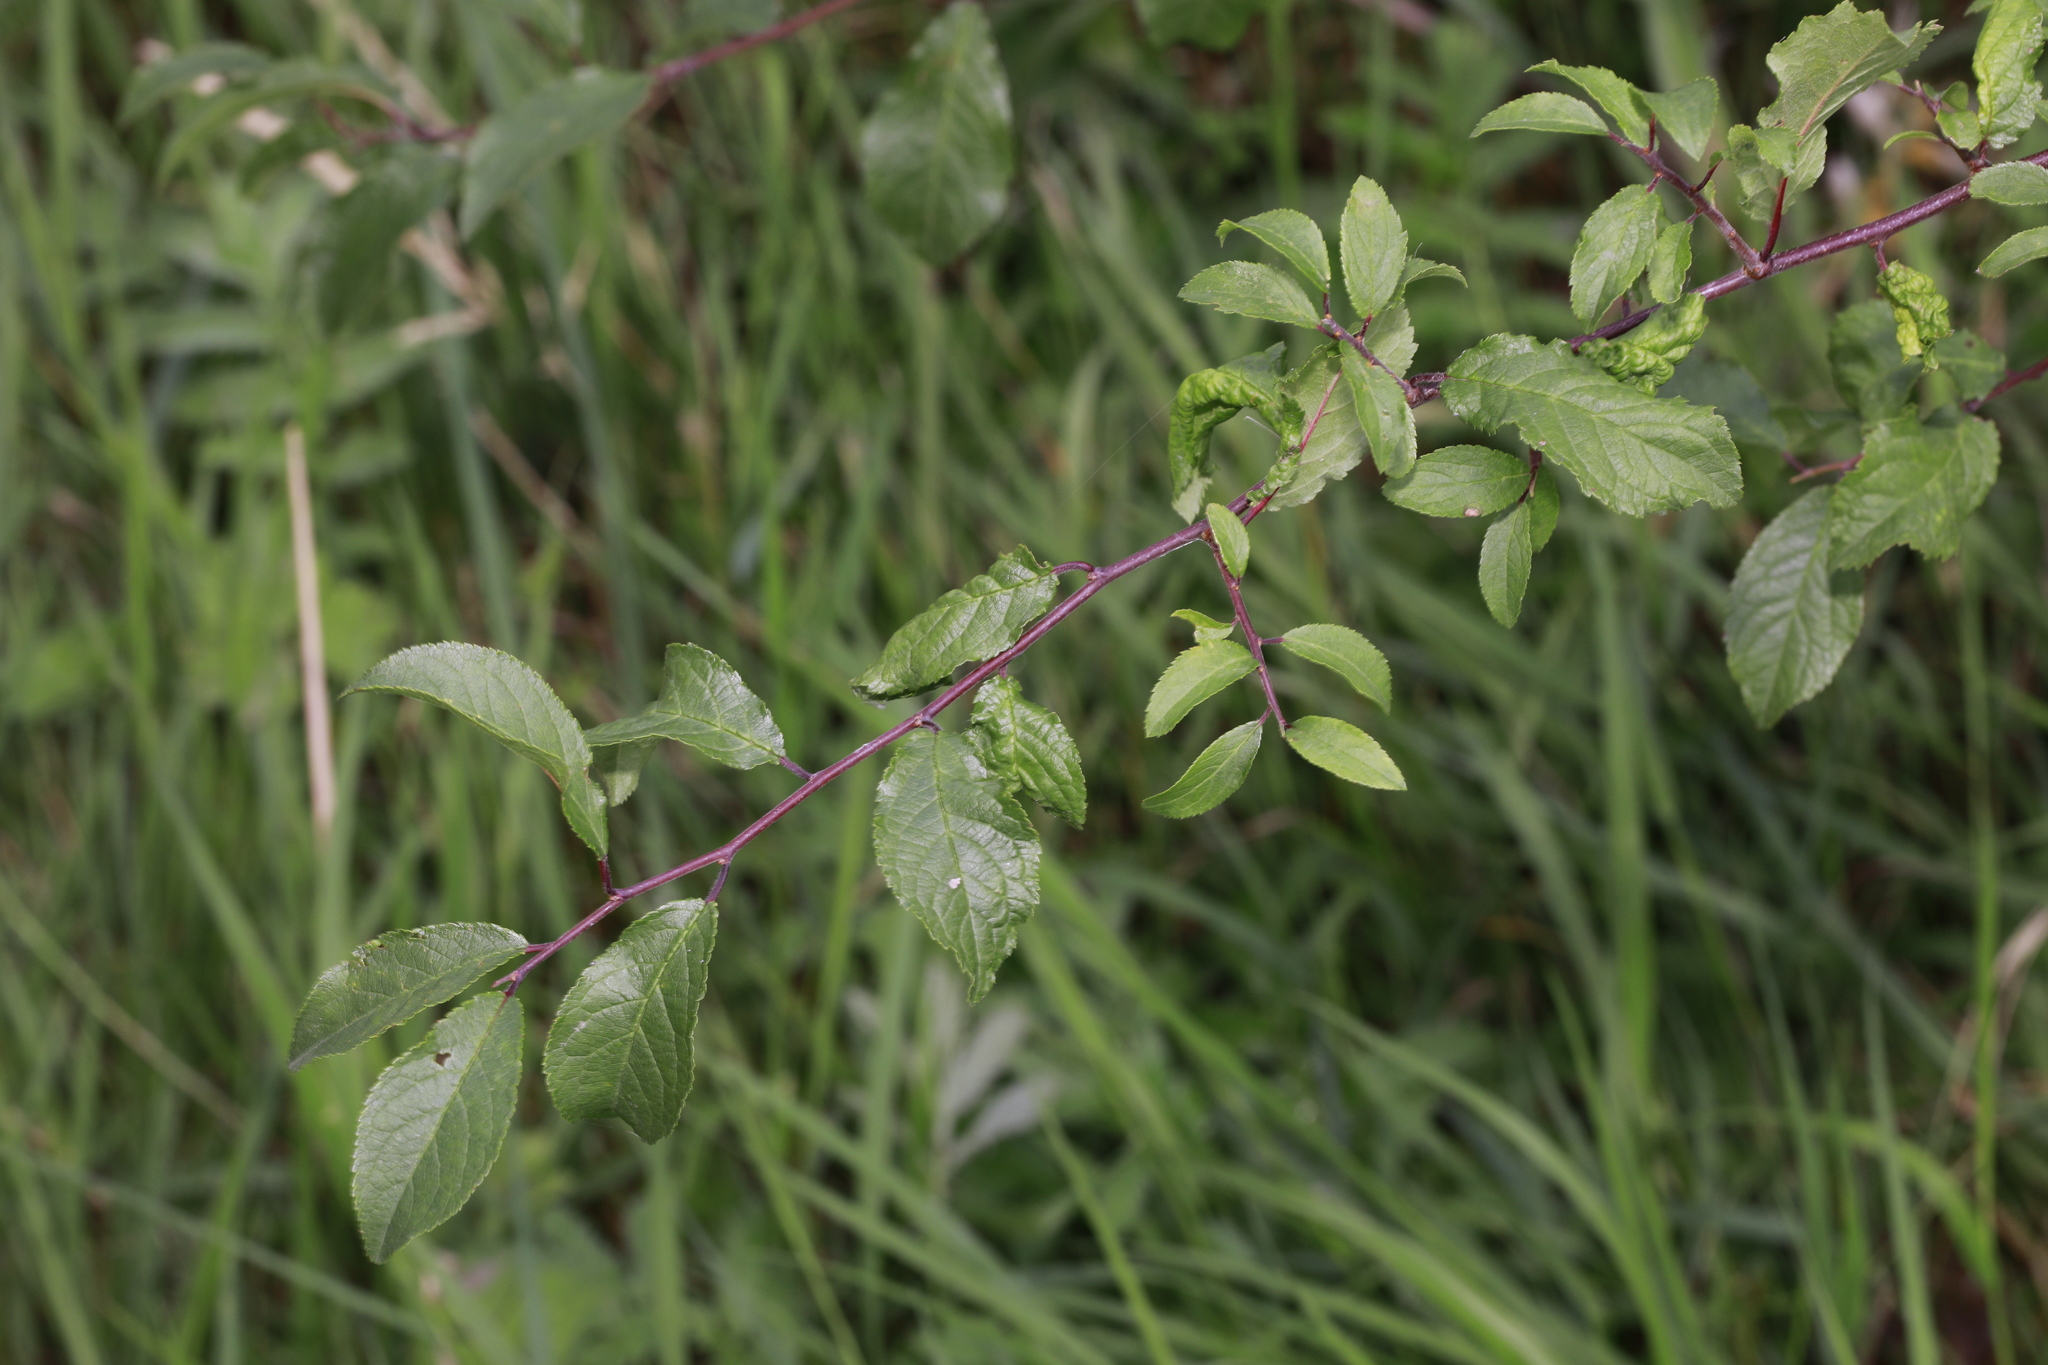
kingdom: Plantae
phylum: Tracheophyta
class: Magnoliopsida
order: Rosales
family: Rosaceae
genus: Prunus
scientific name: Prunus spinosa
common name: Blackthorn
